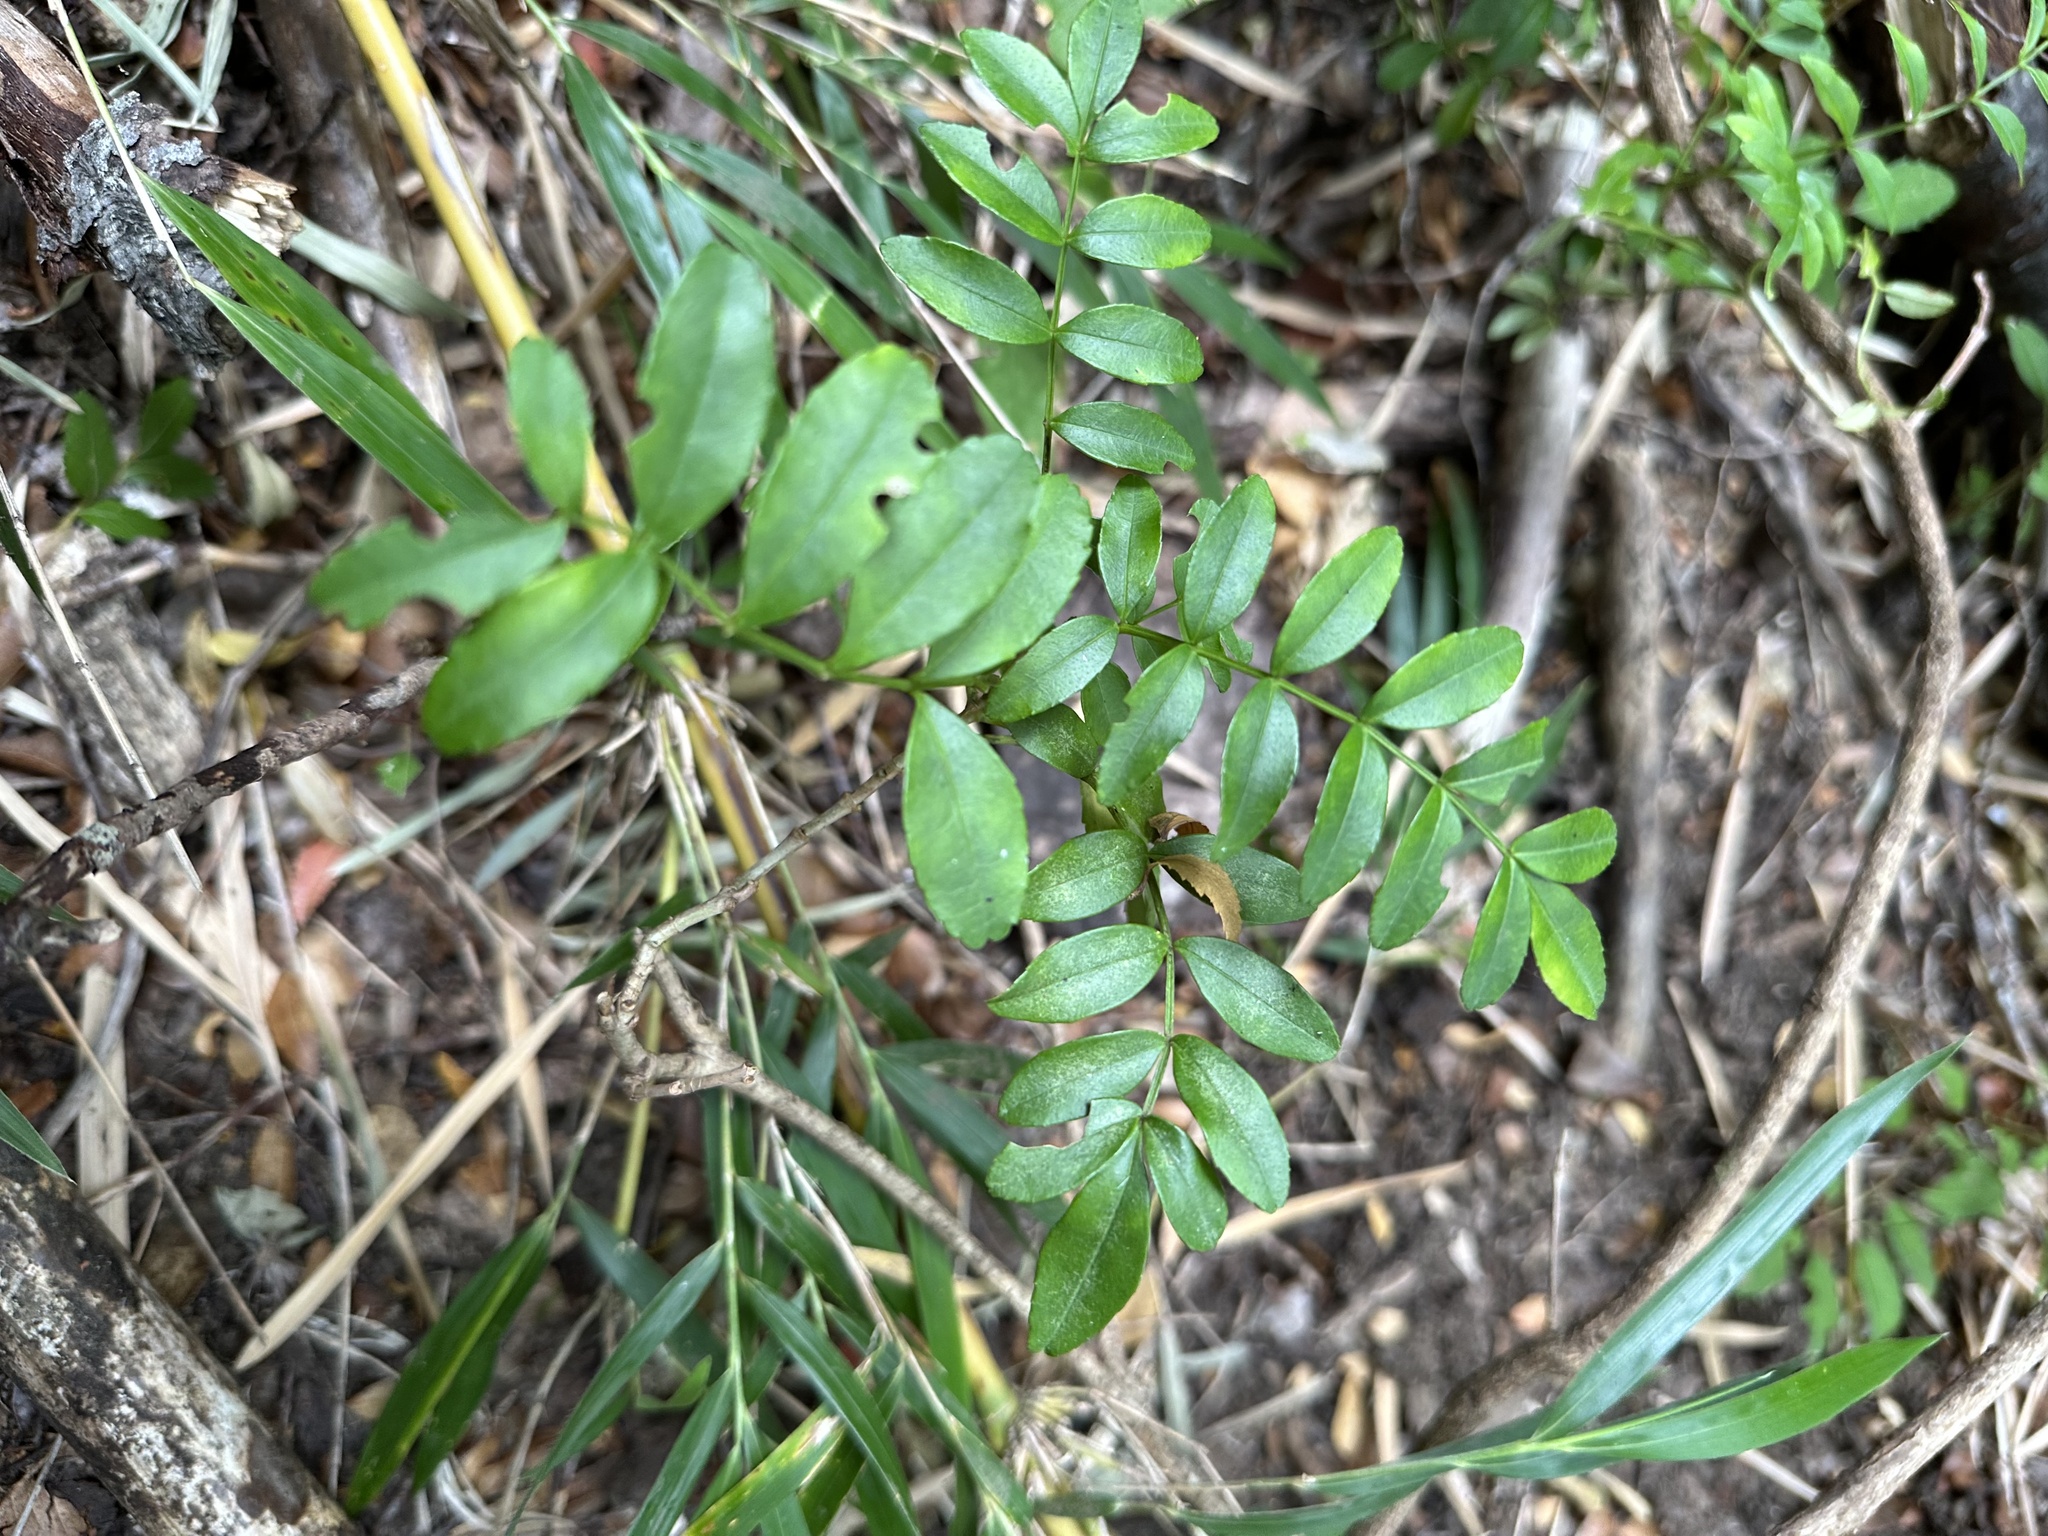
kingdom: Plantae
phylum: Tracheophyta
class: Magnoliopsida
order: Lamiales
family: Bignoniaceae
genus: Campsidium
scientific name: Campsidium valdivianum
